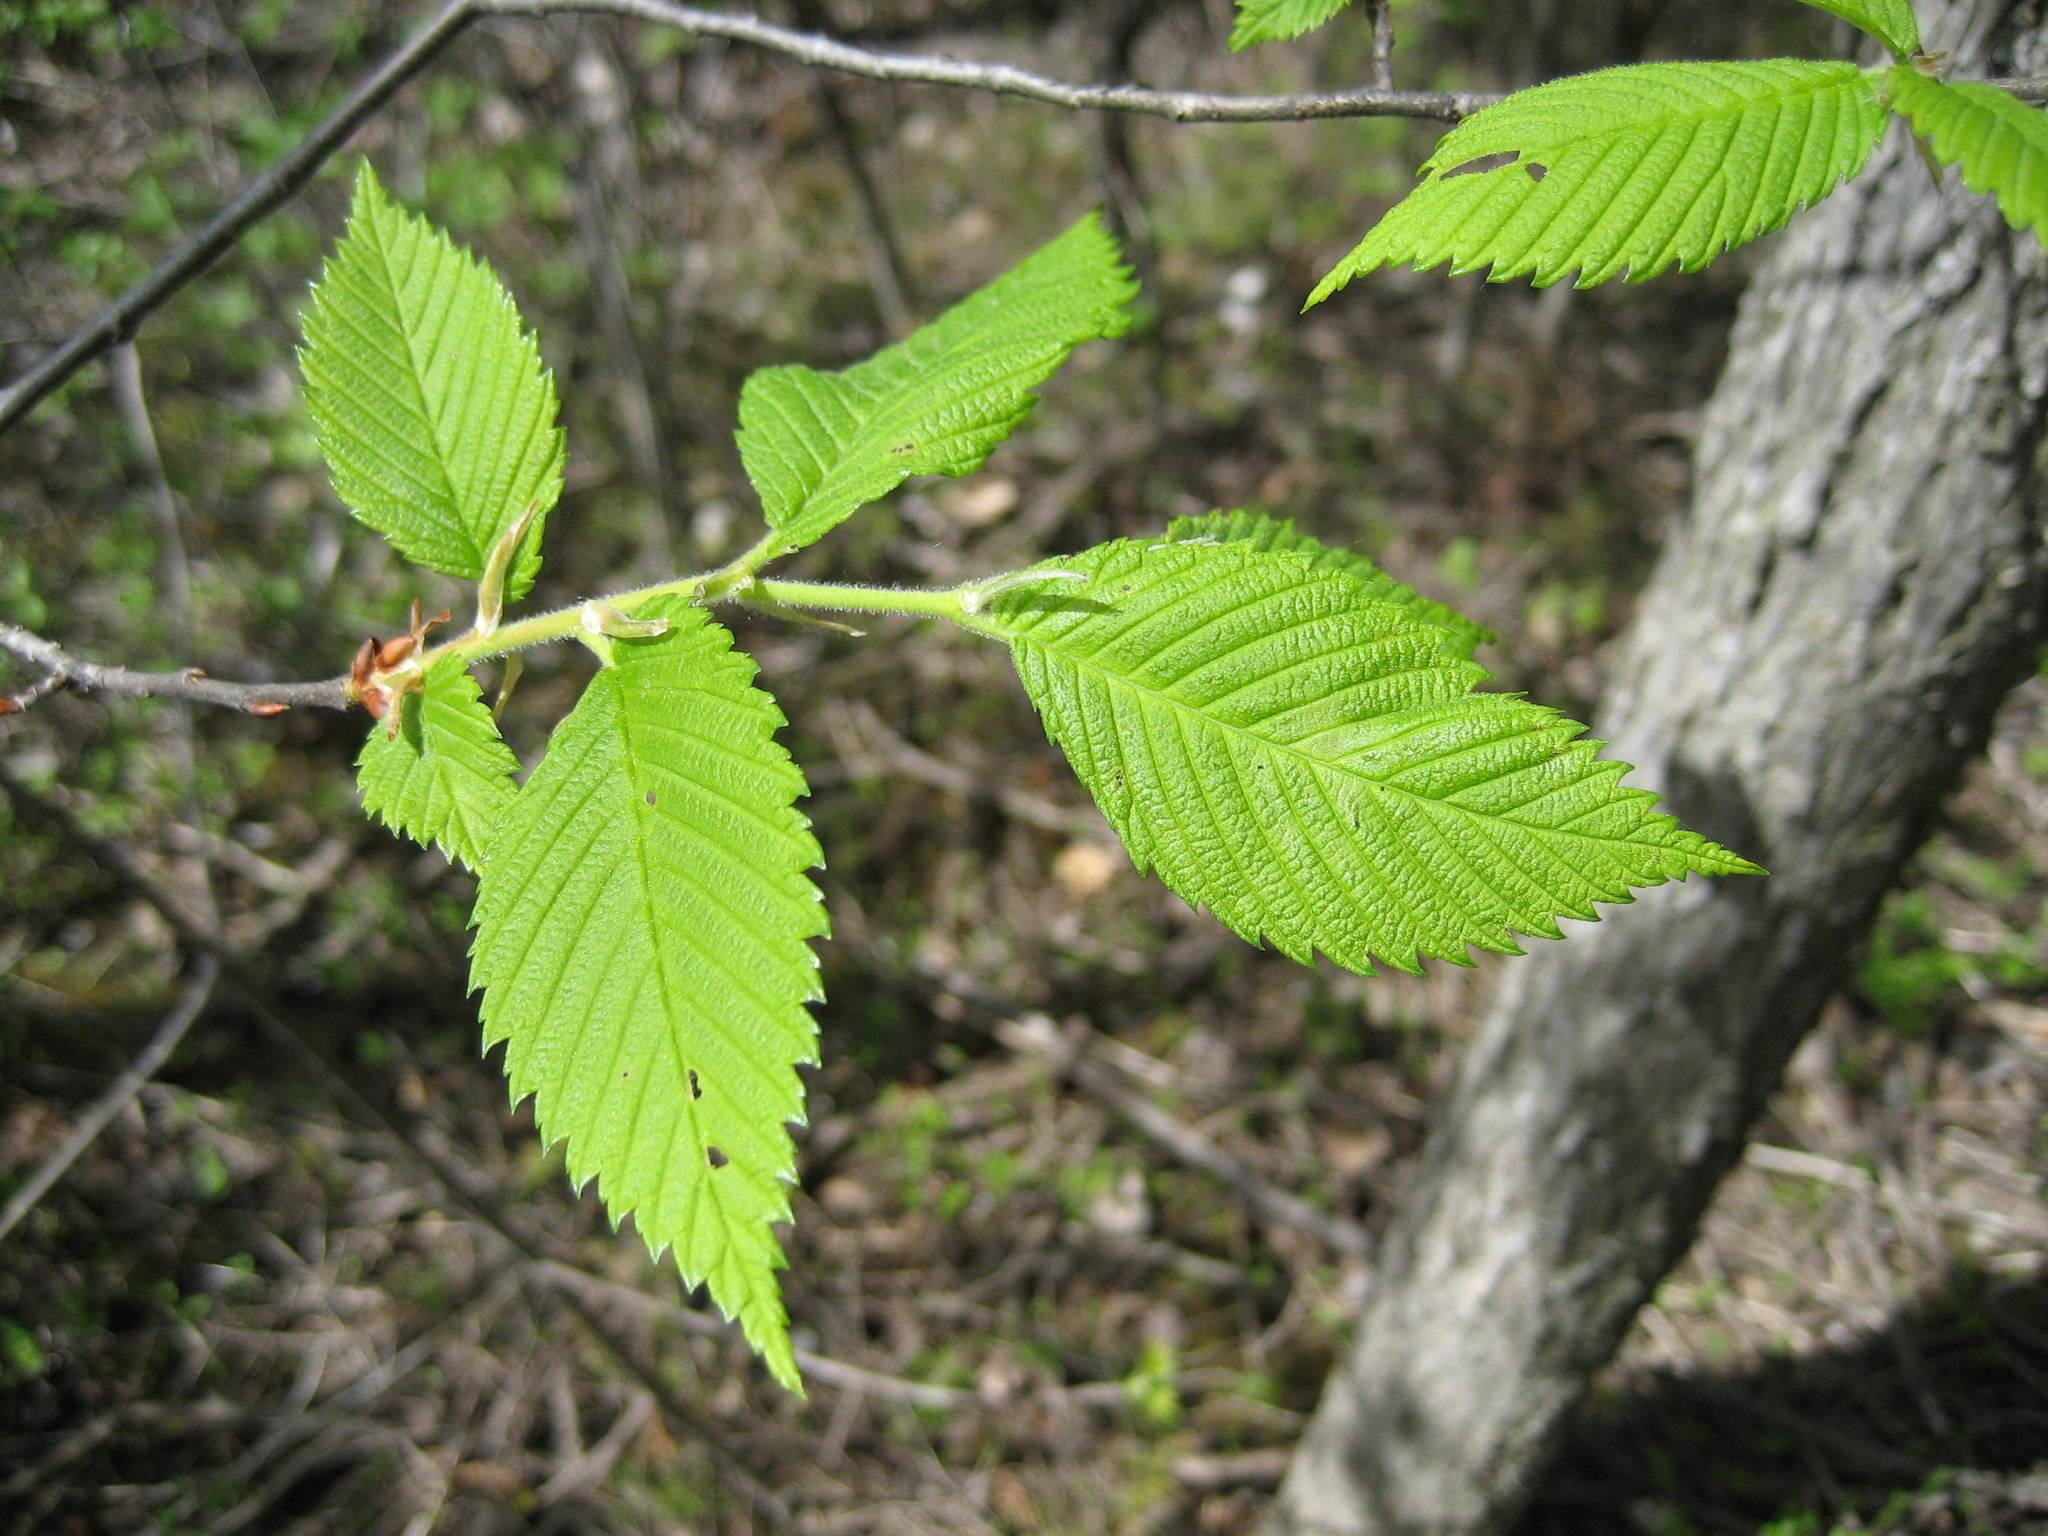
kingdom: Plantae
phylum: Tracheophyta
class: Magnoliopsida
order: Rosales
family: Ulmaceae
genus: Ulmus
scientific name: Ulmus americana
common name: American elm
